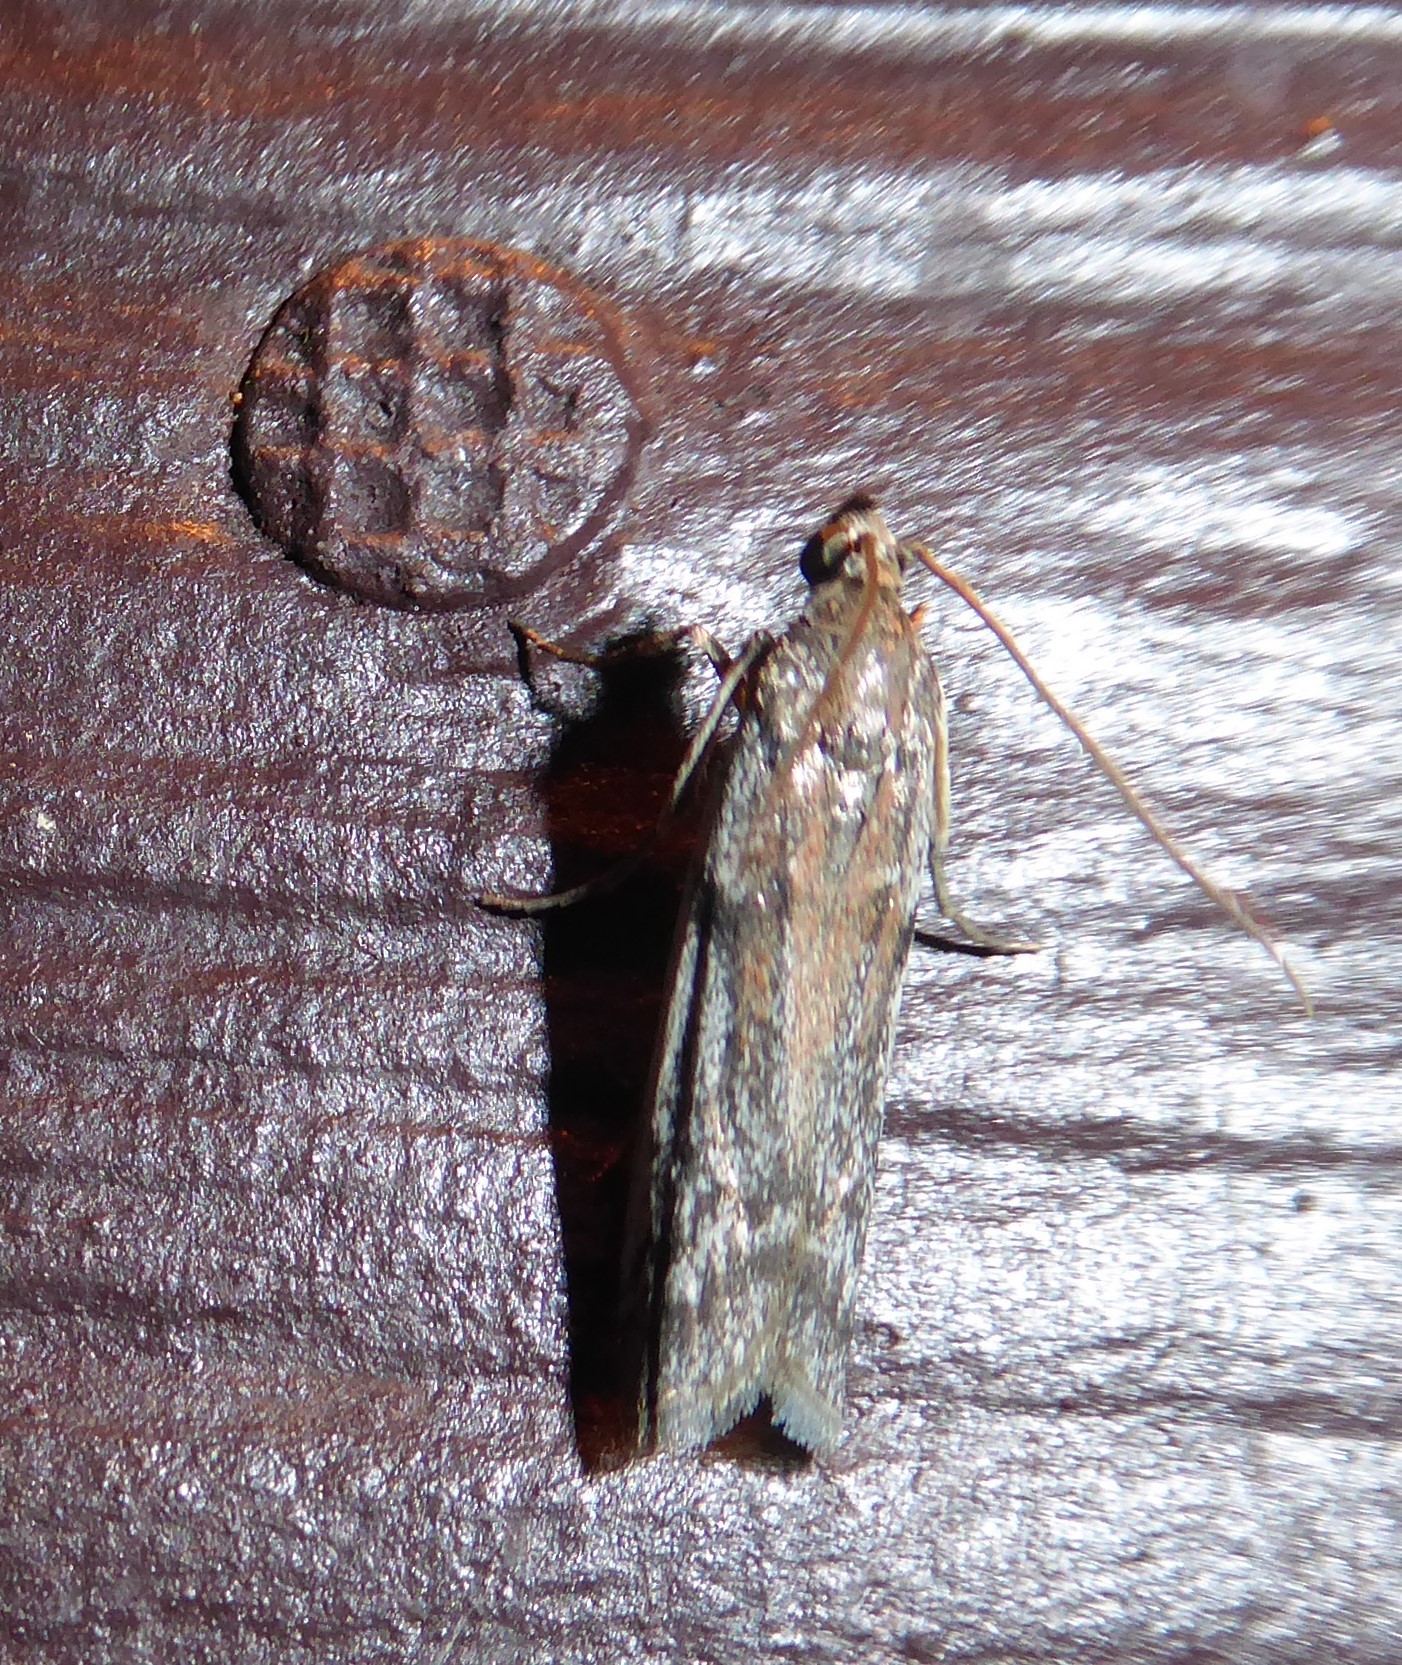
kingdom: Animalia
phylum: Arthropoda
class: Insecta
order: Lepidoptera
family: Pyralidae
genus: Patagoniodes
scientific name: Patagoniodes farinaria
